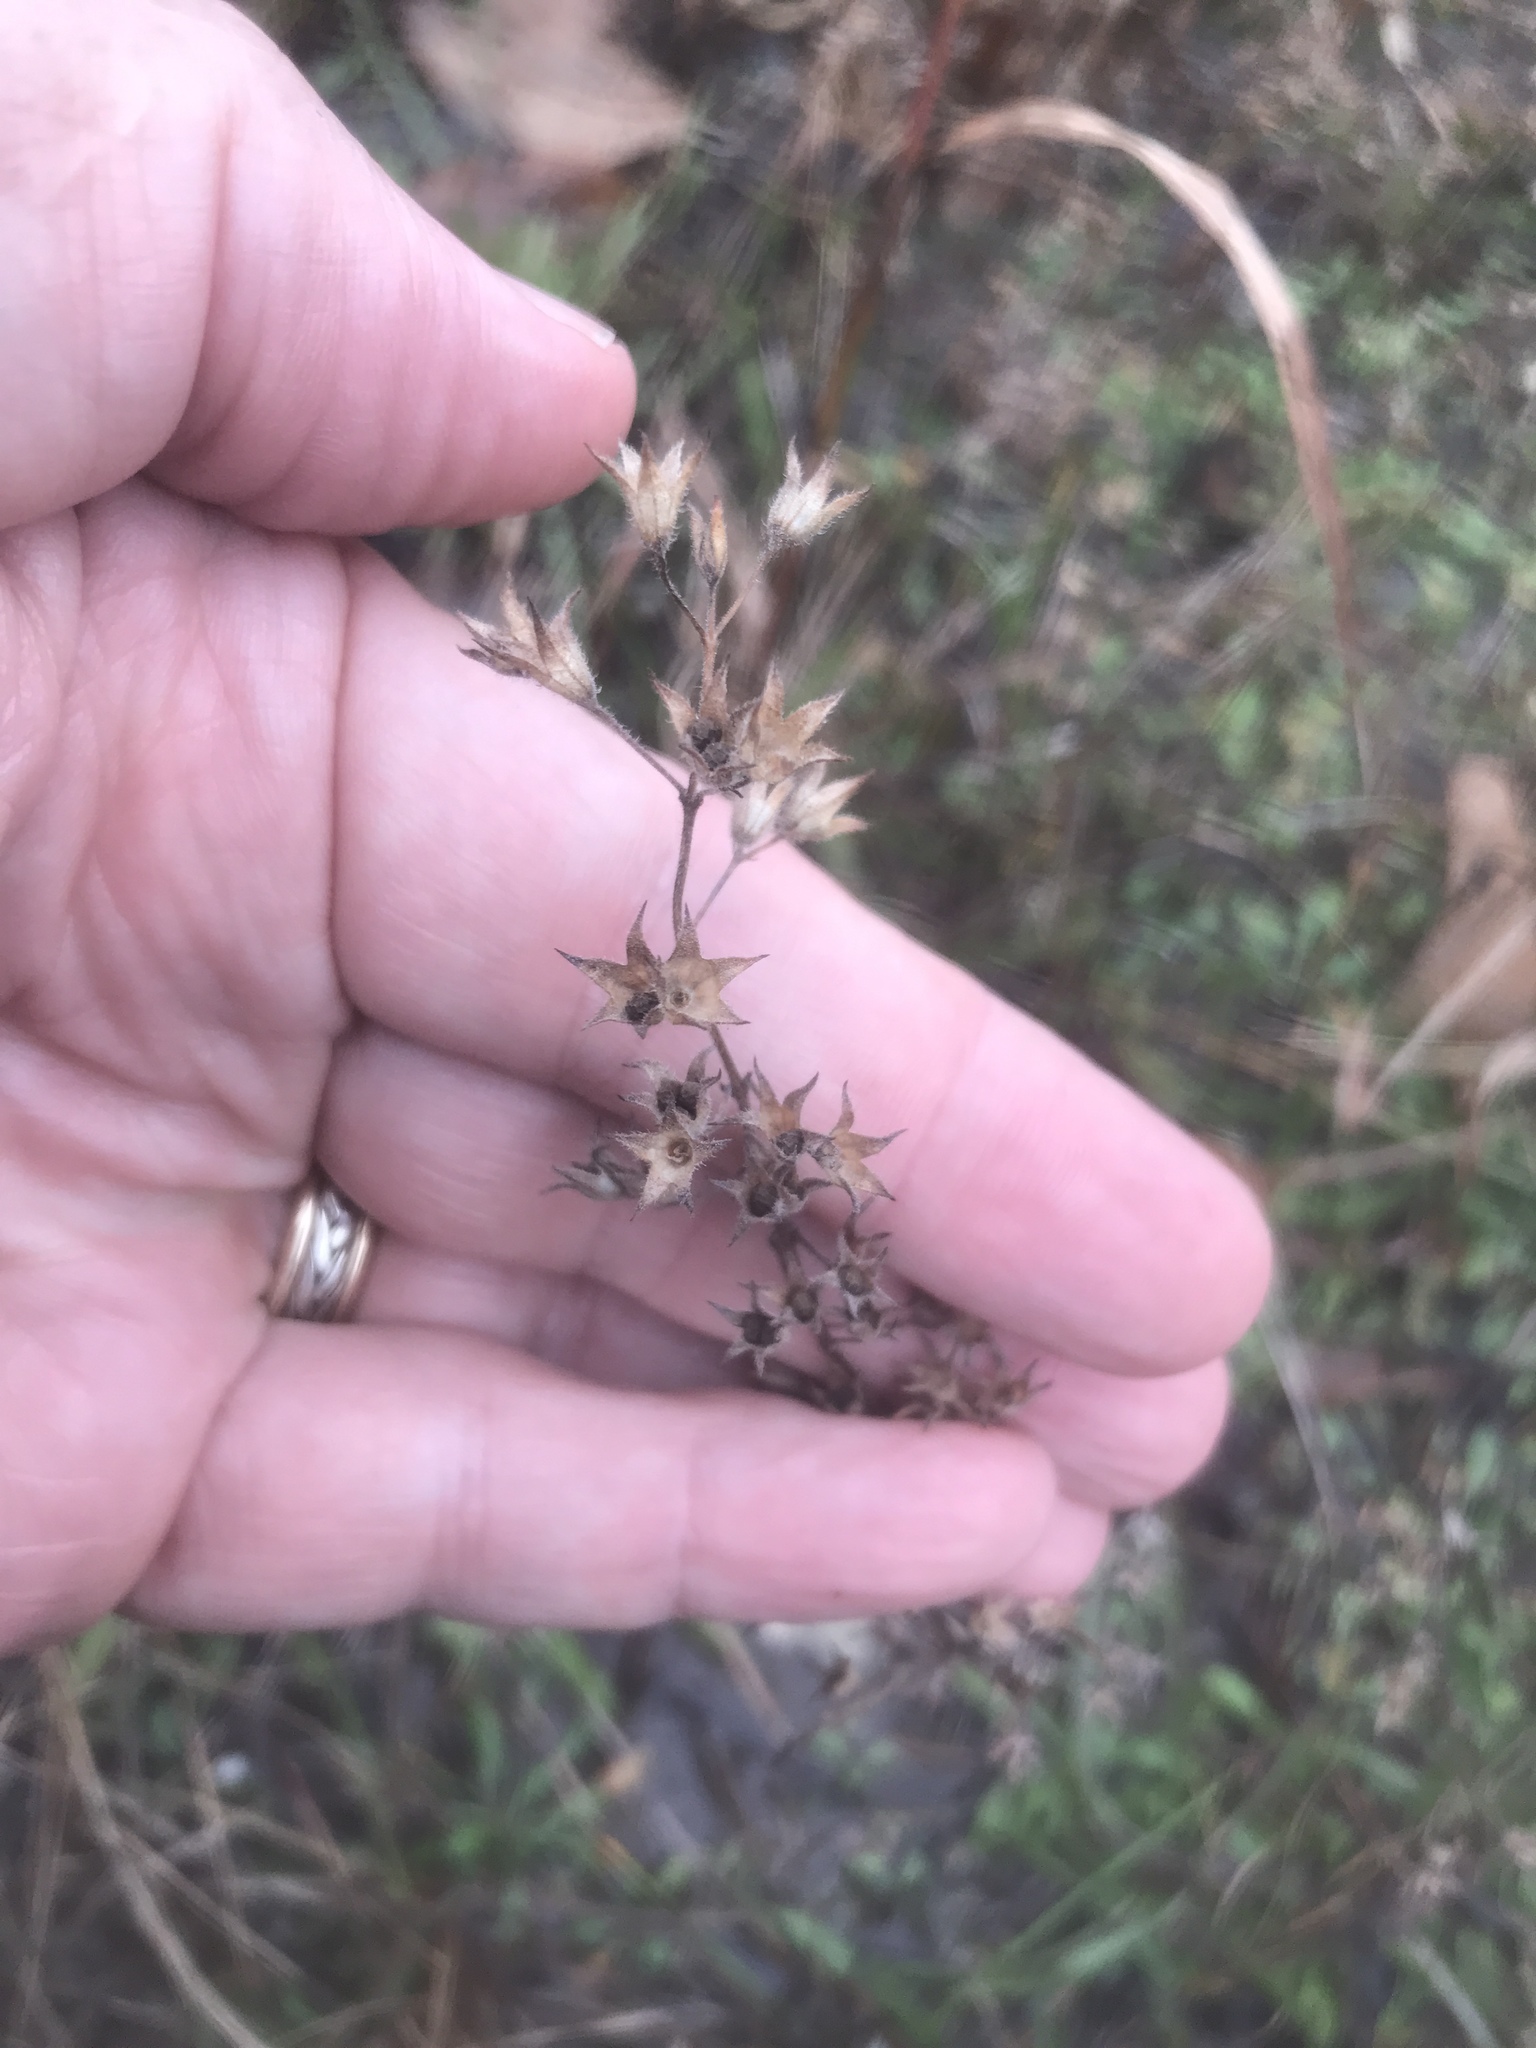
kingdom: Plantae
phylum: Tracheophyta
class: Magnoliopsida
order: Lamiales
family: Lamiaceae
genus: Trichostema
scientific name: Trichostema brachiatum
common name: False pennyroyal
